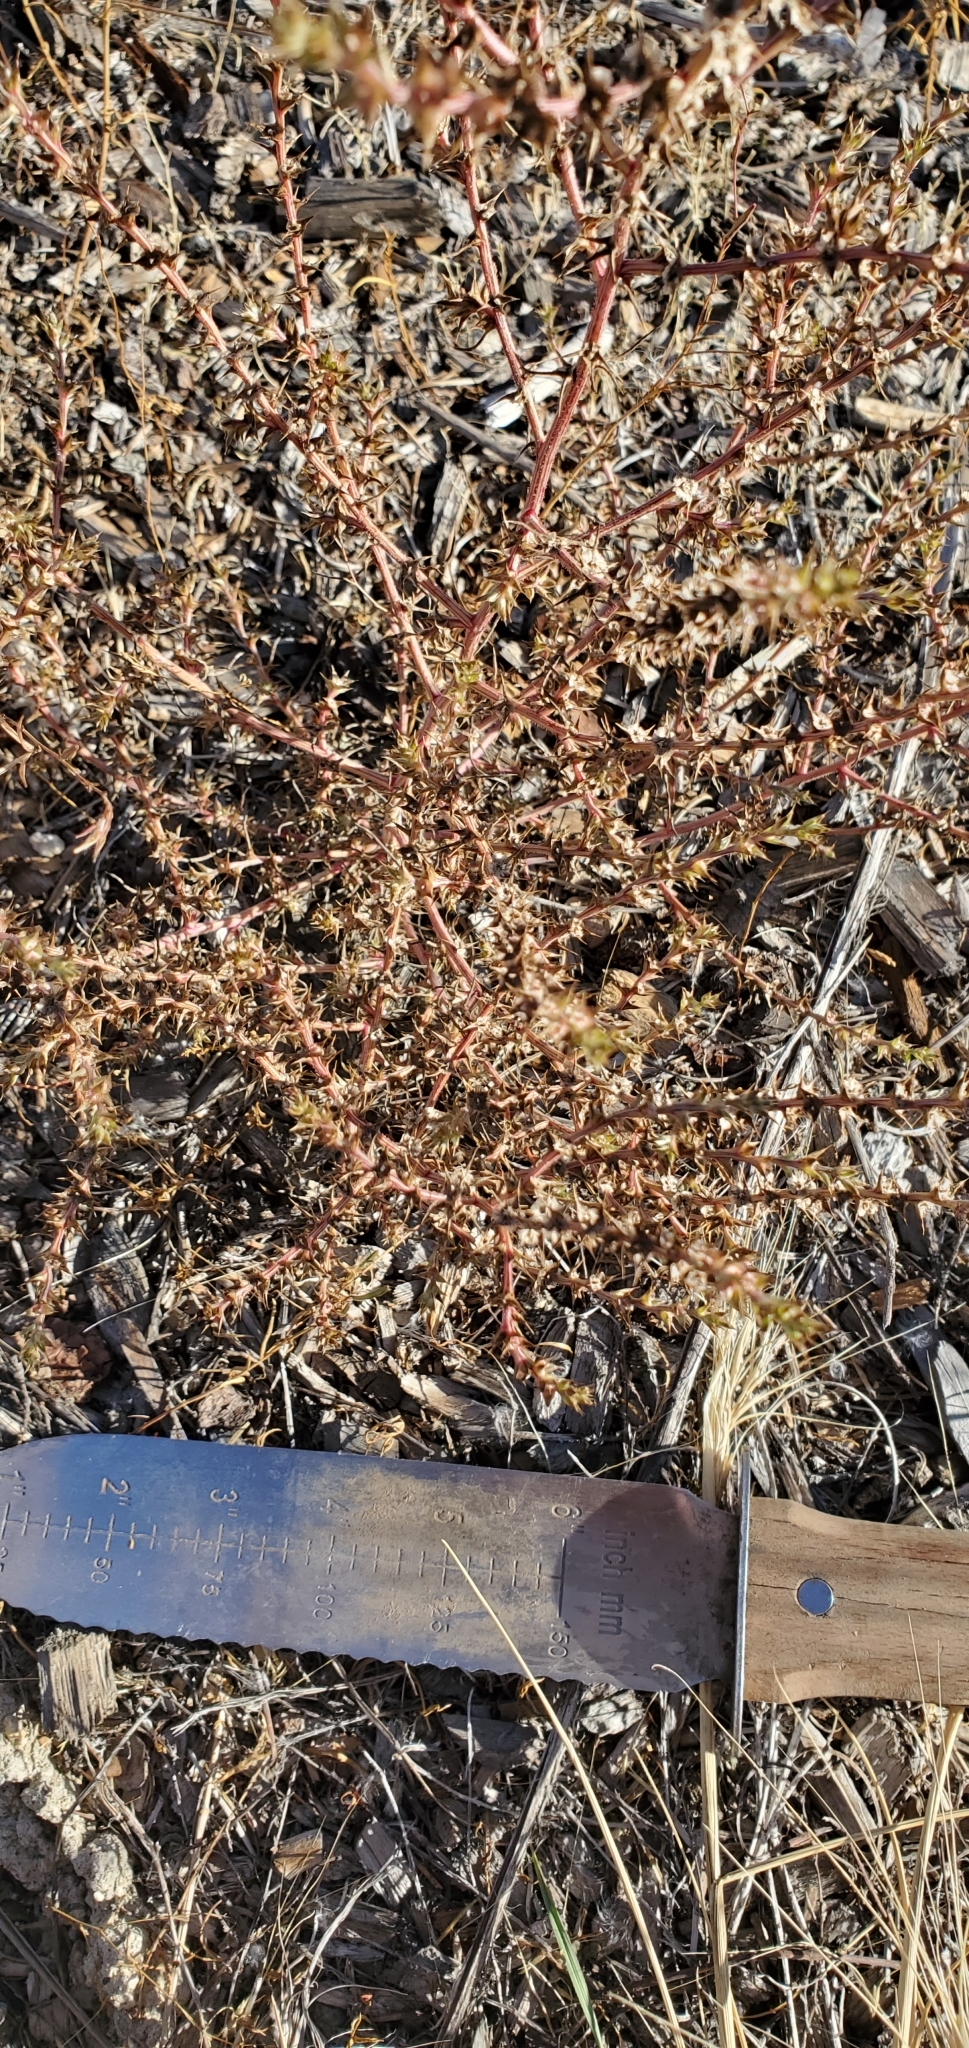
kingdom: Plantae
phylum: Tracheophyta
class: Magnoliopsida
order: Caryophyllales
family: Amaranthaceae
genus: Salsola
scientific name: Salsola tragus
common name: Prickly russian thistle
